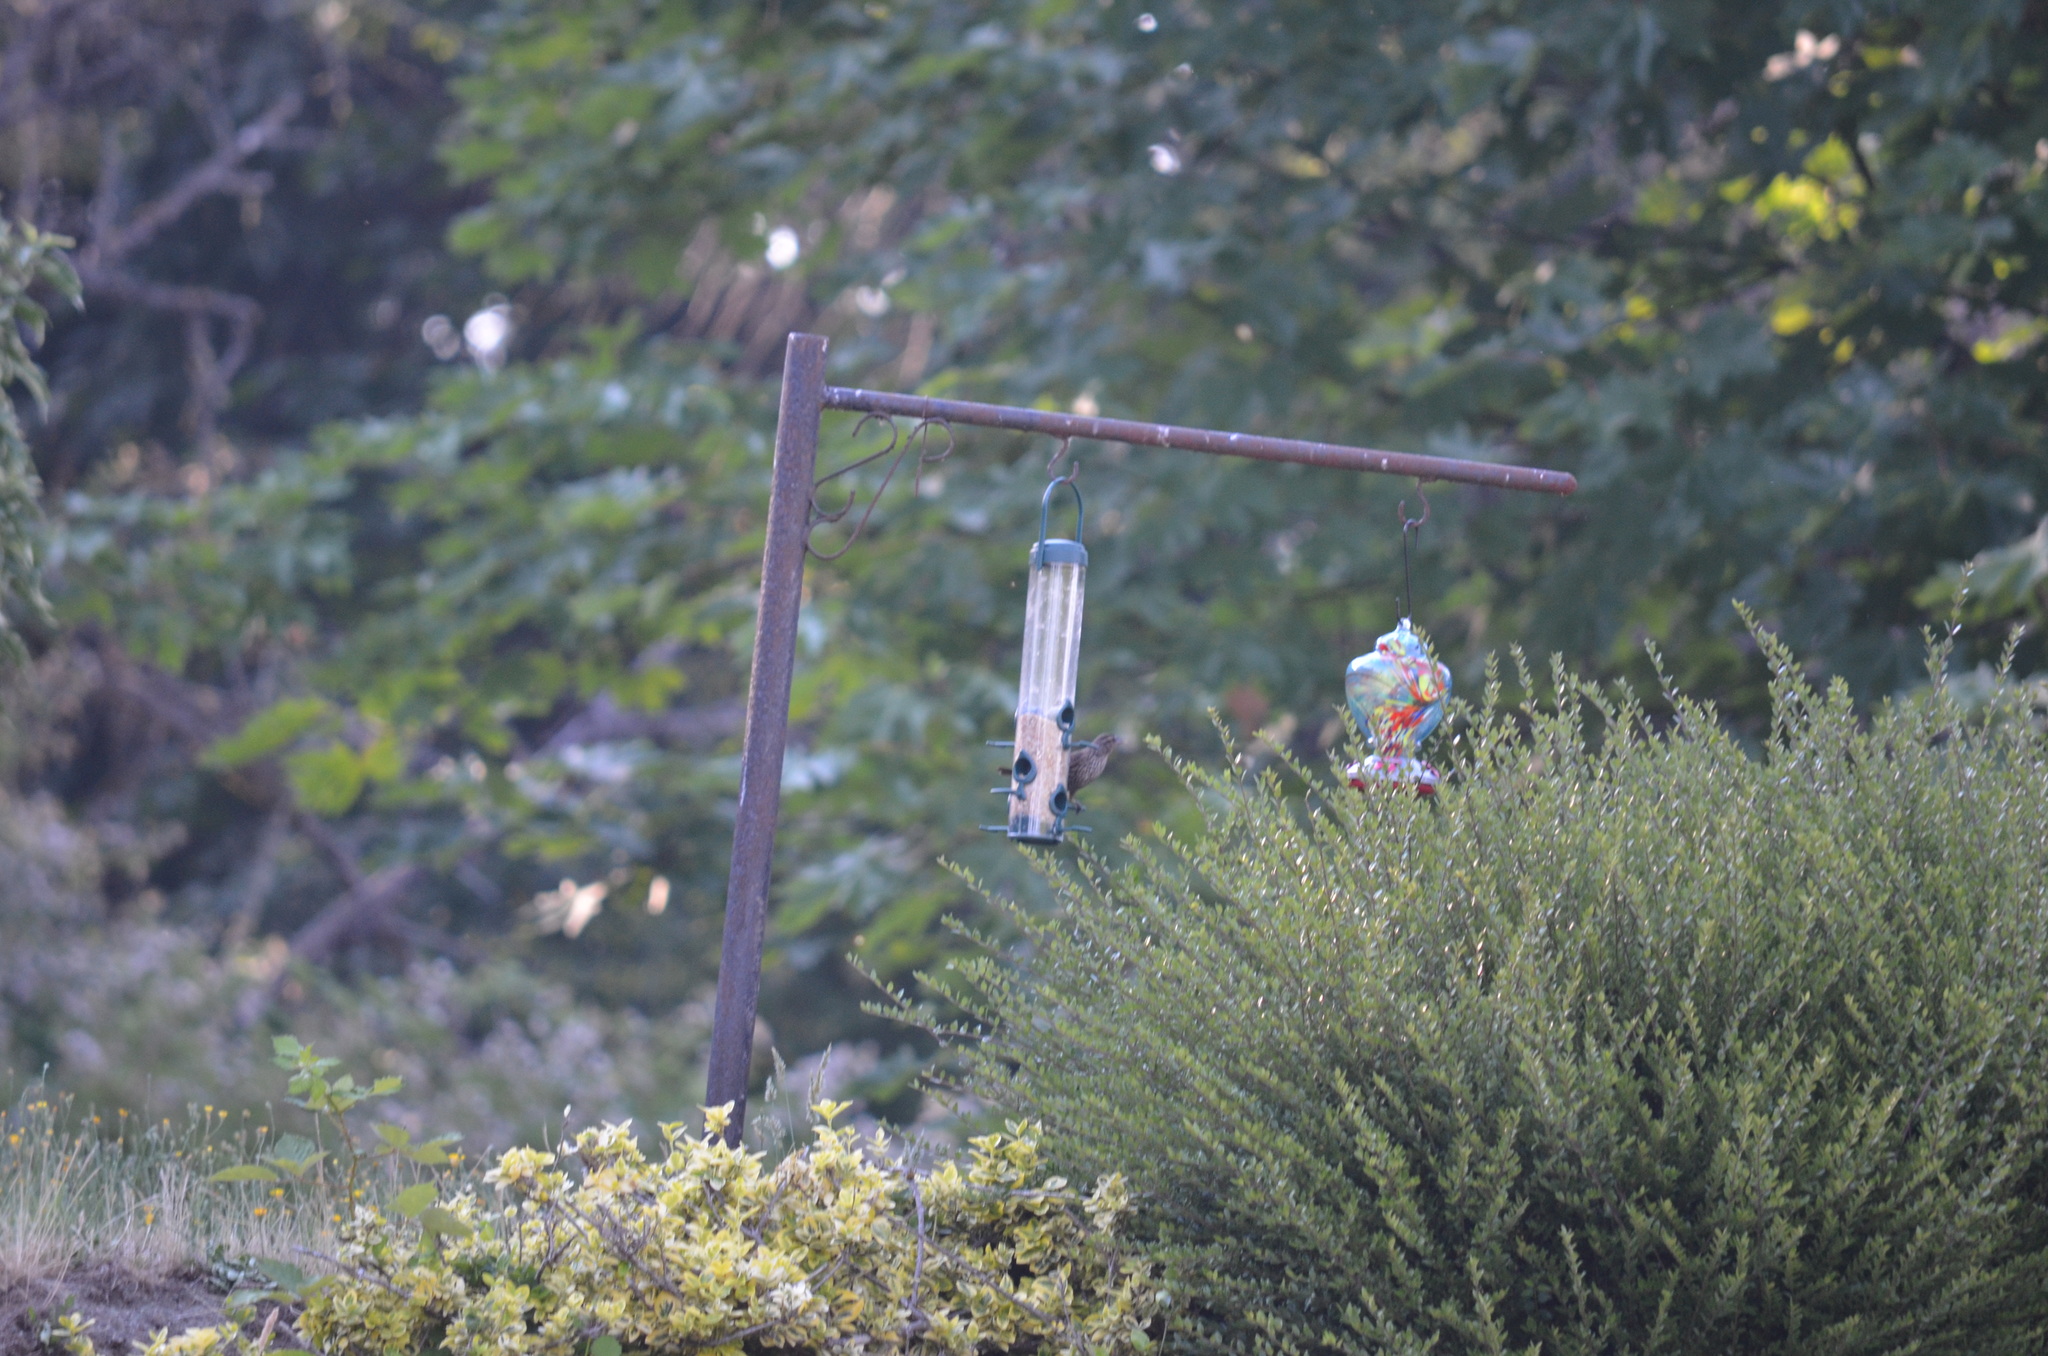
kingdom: Animalia
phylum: Chordata
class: Aves
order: Passeriformes
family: Icteridae
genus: Agelaius
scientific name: Agelaius phoeniceus
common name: Red-winged blackbird
